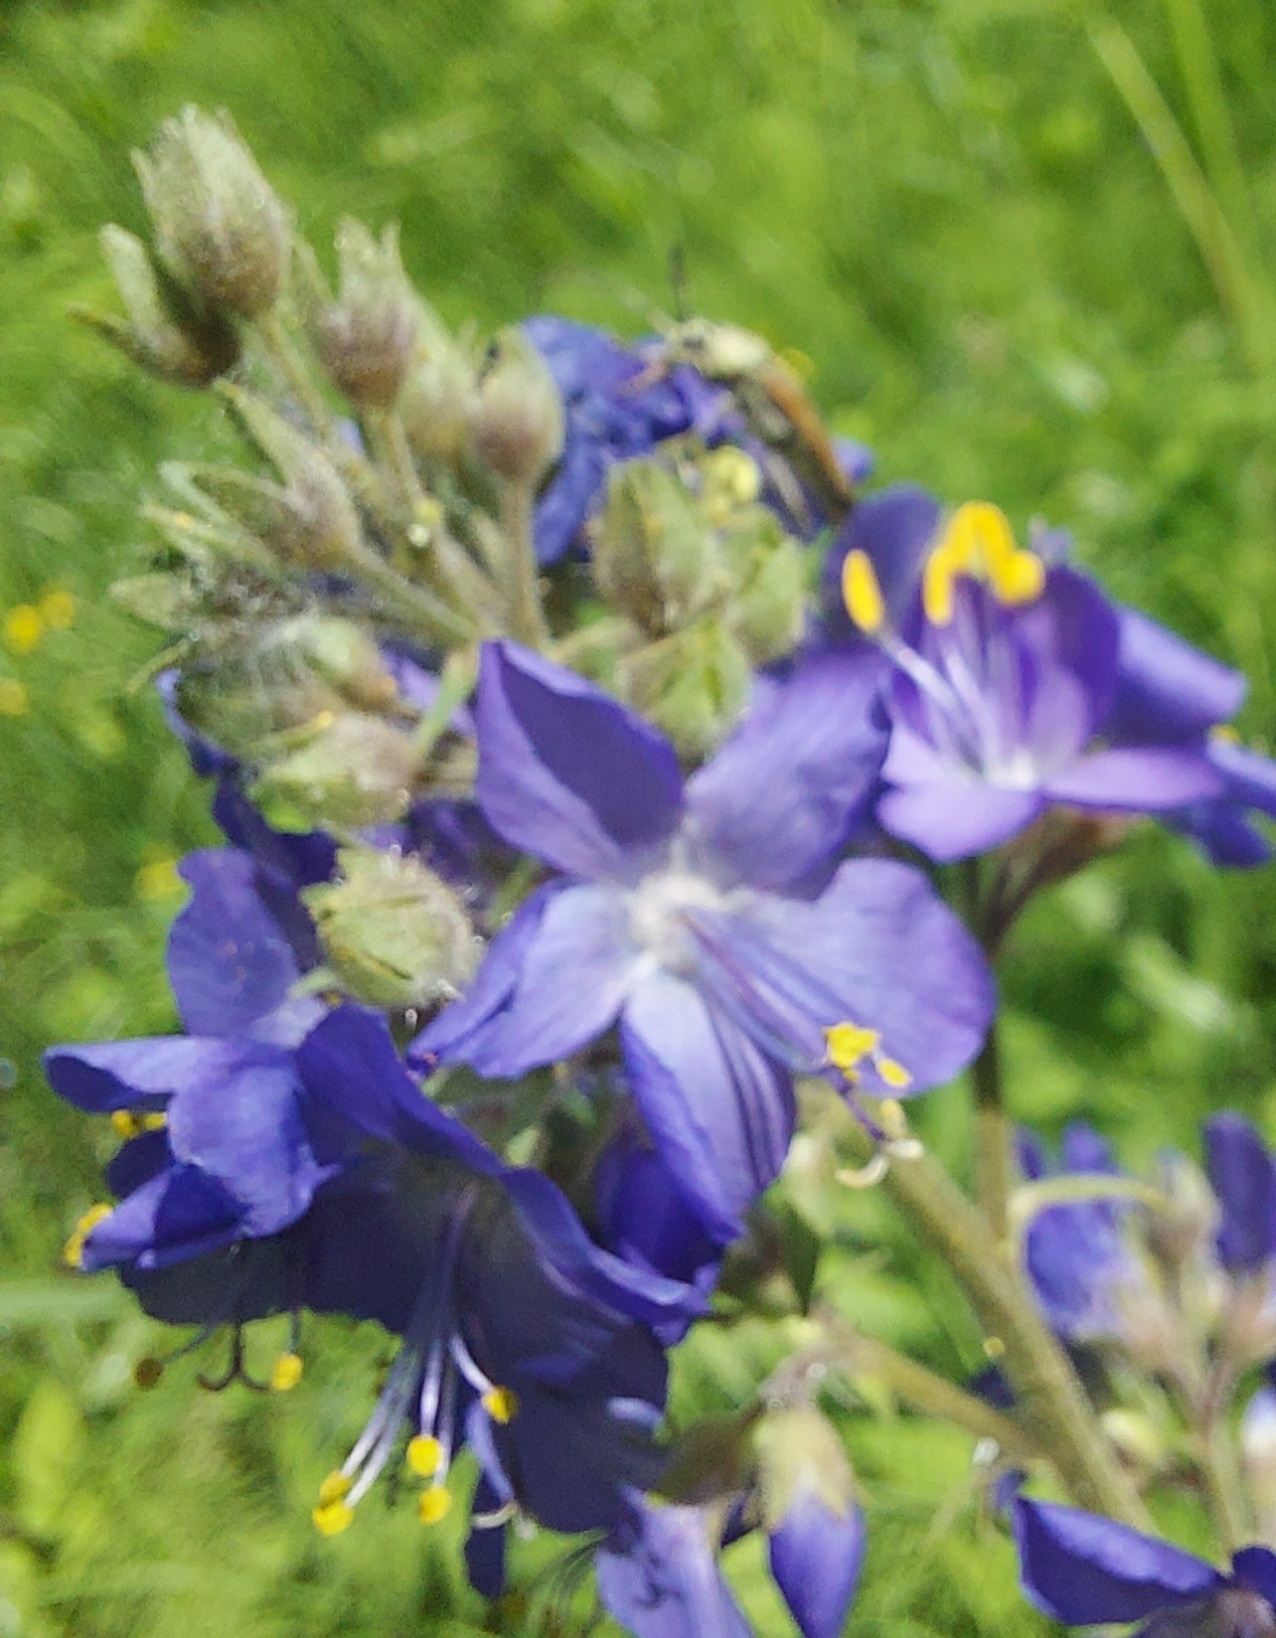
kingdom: Plantae
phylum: Tracheophyta
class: Magnoliopsida
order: Ericales
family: Polemoniaceae
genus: Polemonium
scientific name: Polemonium caeruleum
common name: Jacob's-ladder
